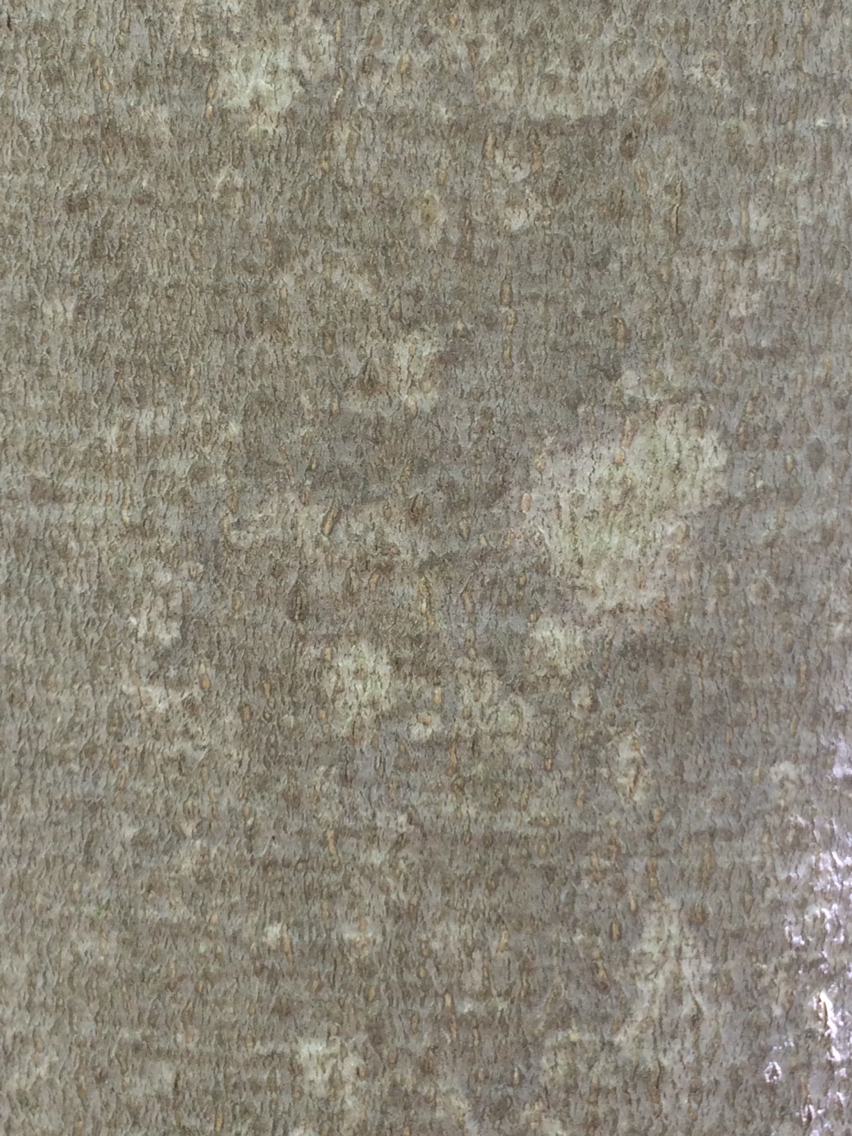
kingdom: Plantae
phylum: Tracheophyta
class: Magnoliopsida
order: Fagales
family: Fagaceae
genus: Fagus
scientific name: Fagus grandifolia
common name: American beech
